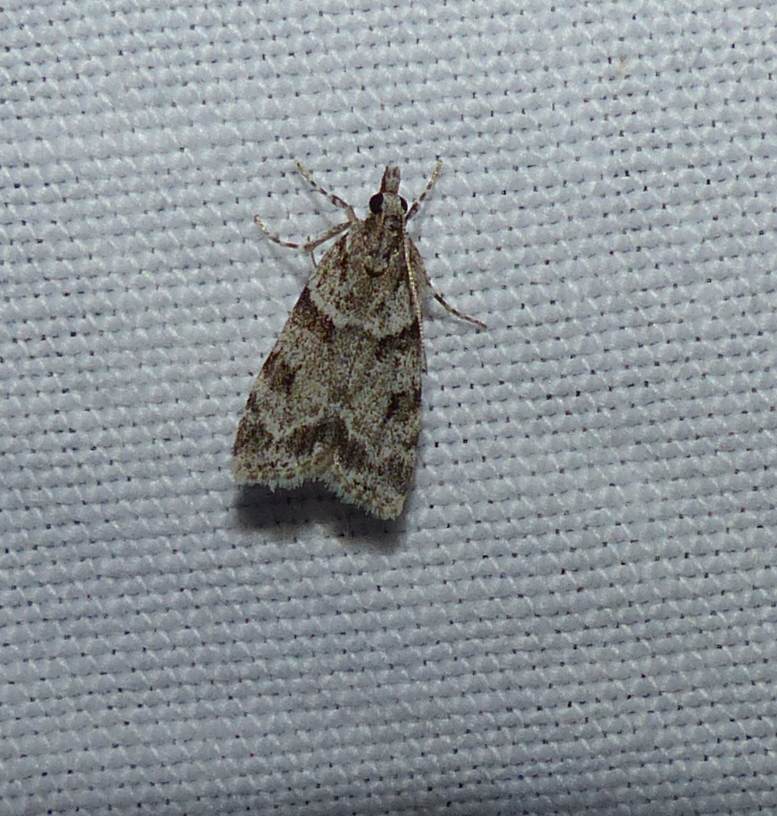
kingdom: Animalia
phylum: Arthropoda
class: Insecta
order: Lepidoptera
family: Crambidae
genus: Scoparia
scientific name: Scoparia biplagialis
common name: Double-striped scoparia moth
